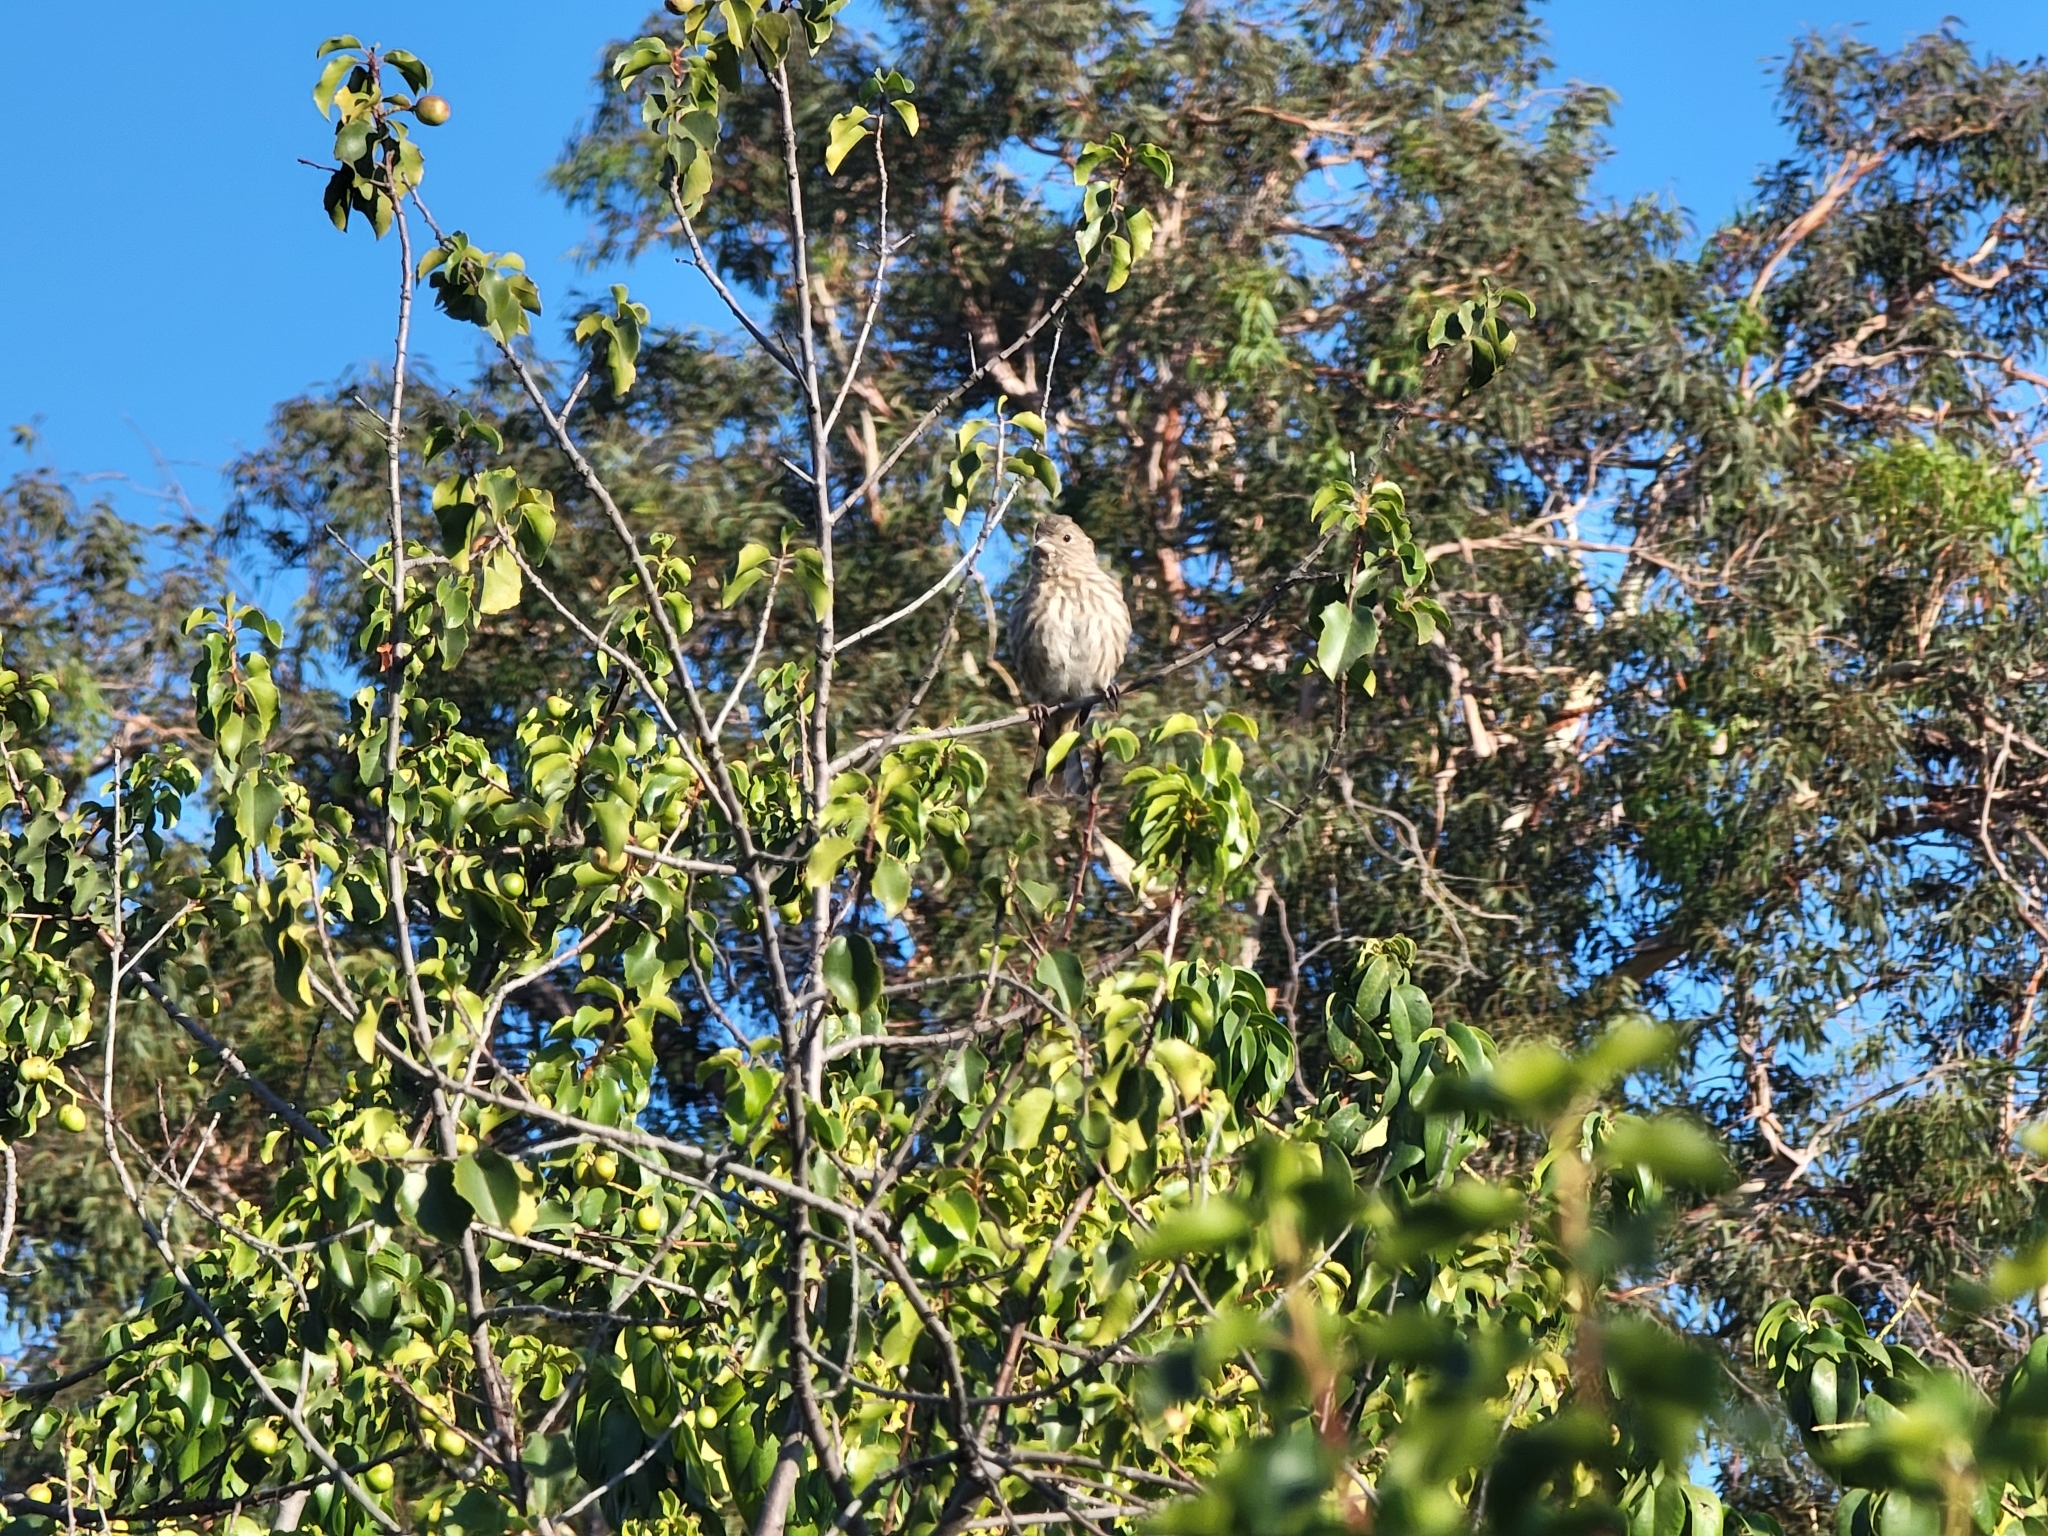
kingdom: Animalia
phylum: Chordata
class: Aves
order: Passeriformes
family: Fringillidae
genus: Haemorhous
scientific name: Haemorhous mexicanus
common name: House finch
